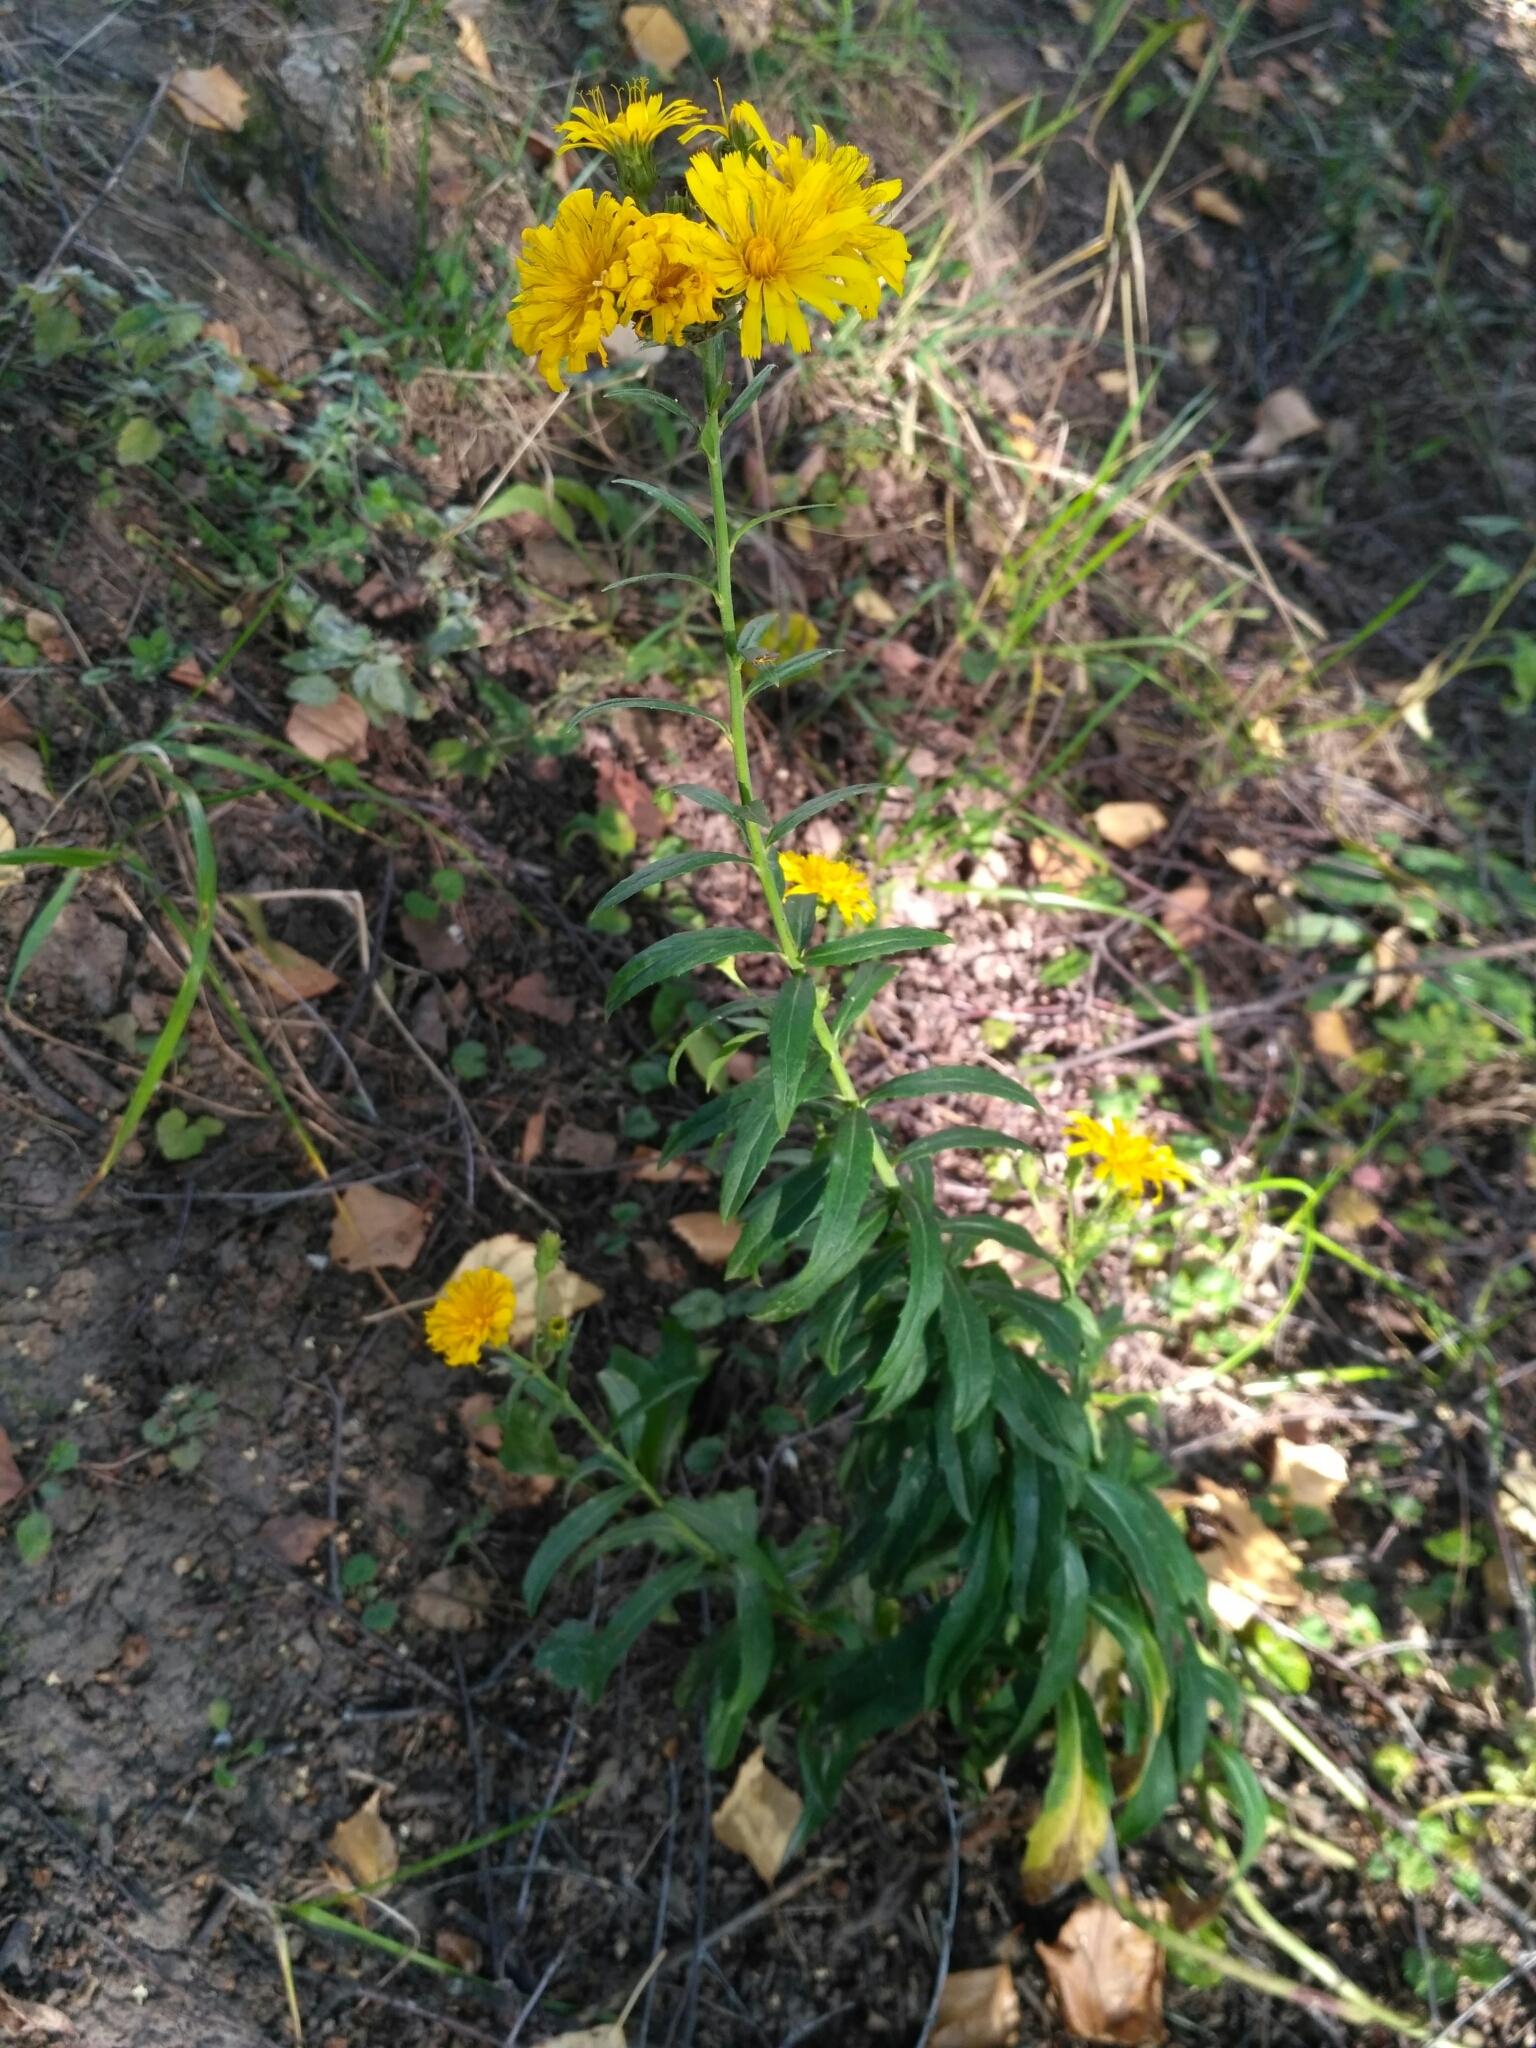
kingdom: Plantae
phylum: Tracheophyta
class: Magnoliopsida
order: Asterales
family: Asteraceae
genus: Hieracium
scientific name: Hieracium umbellatum
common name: Northern hawkweed
